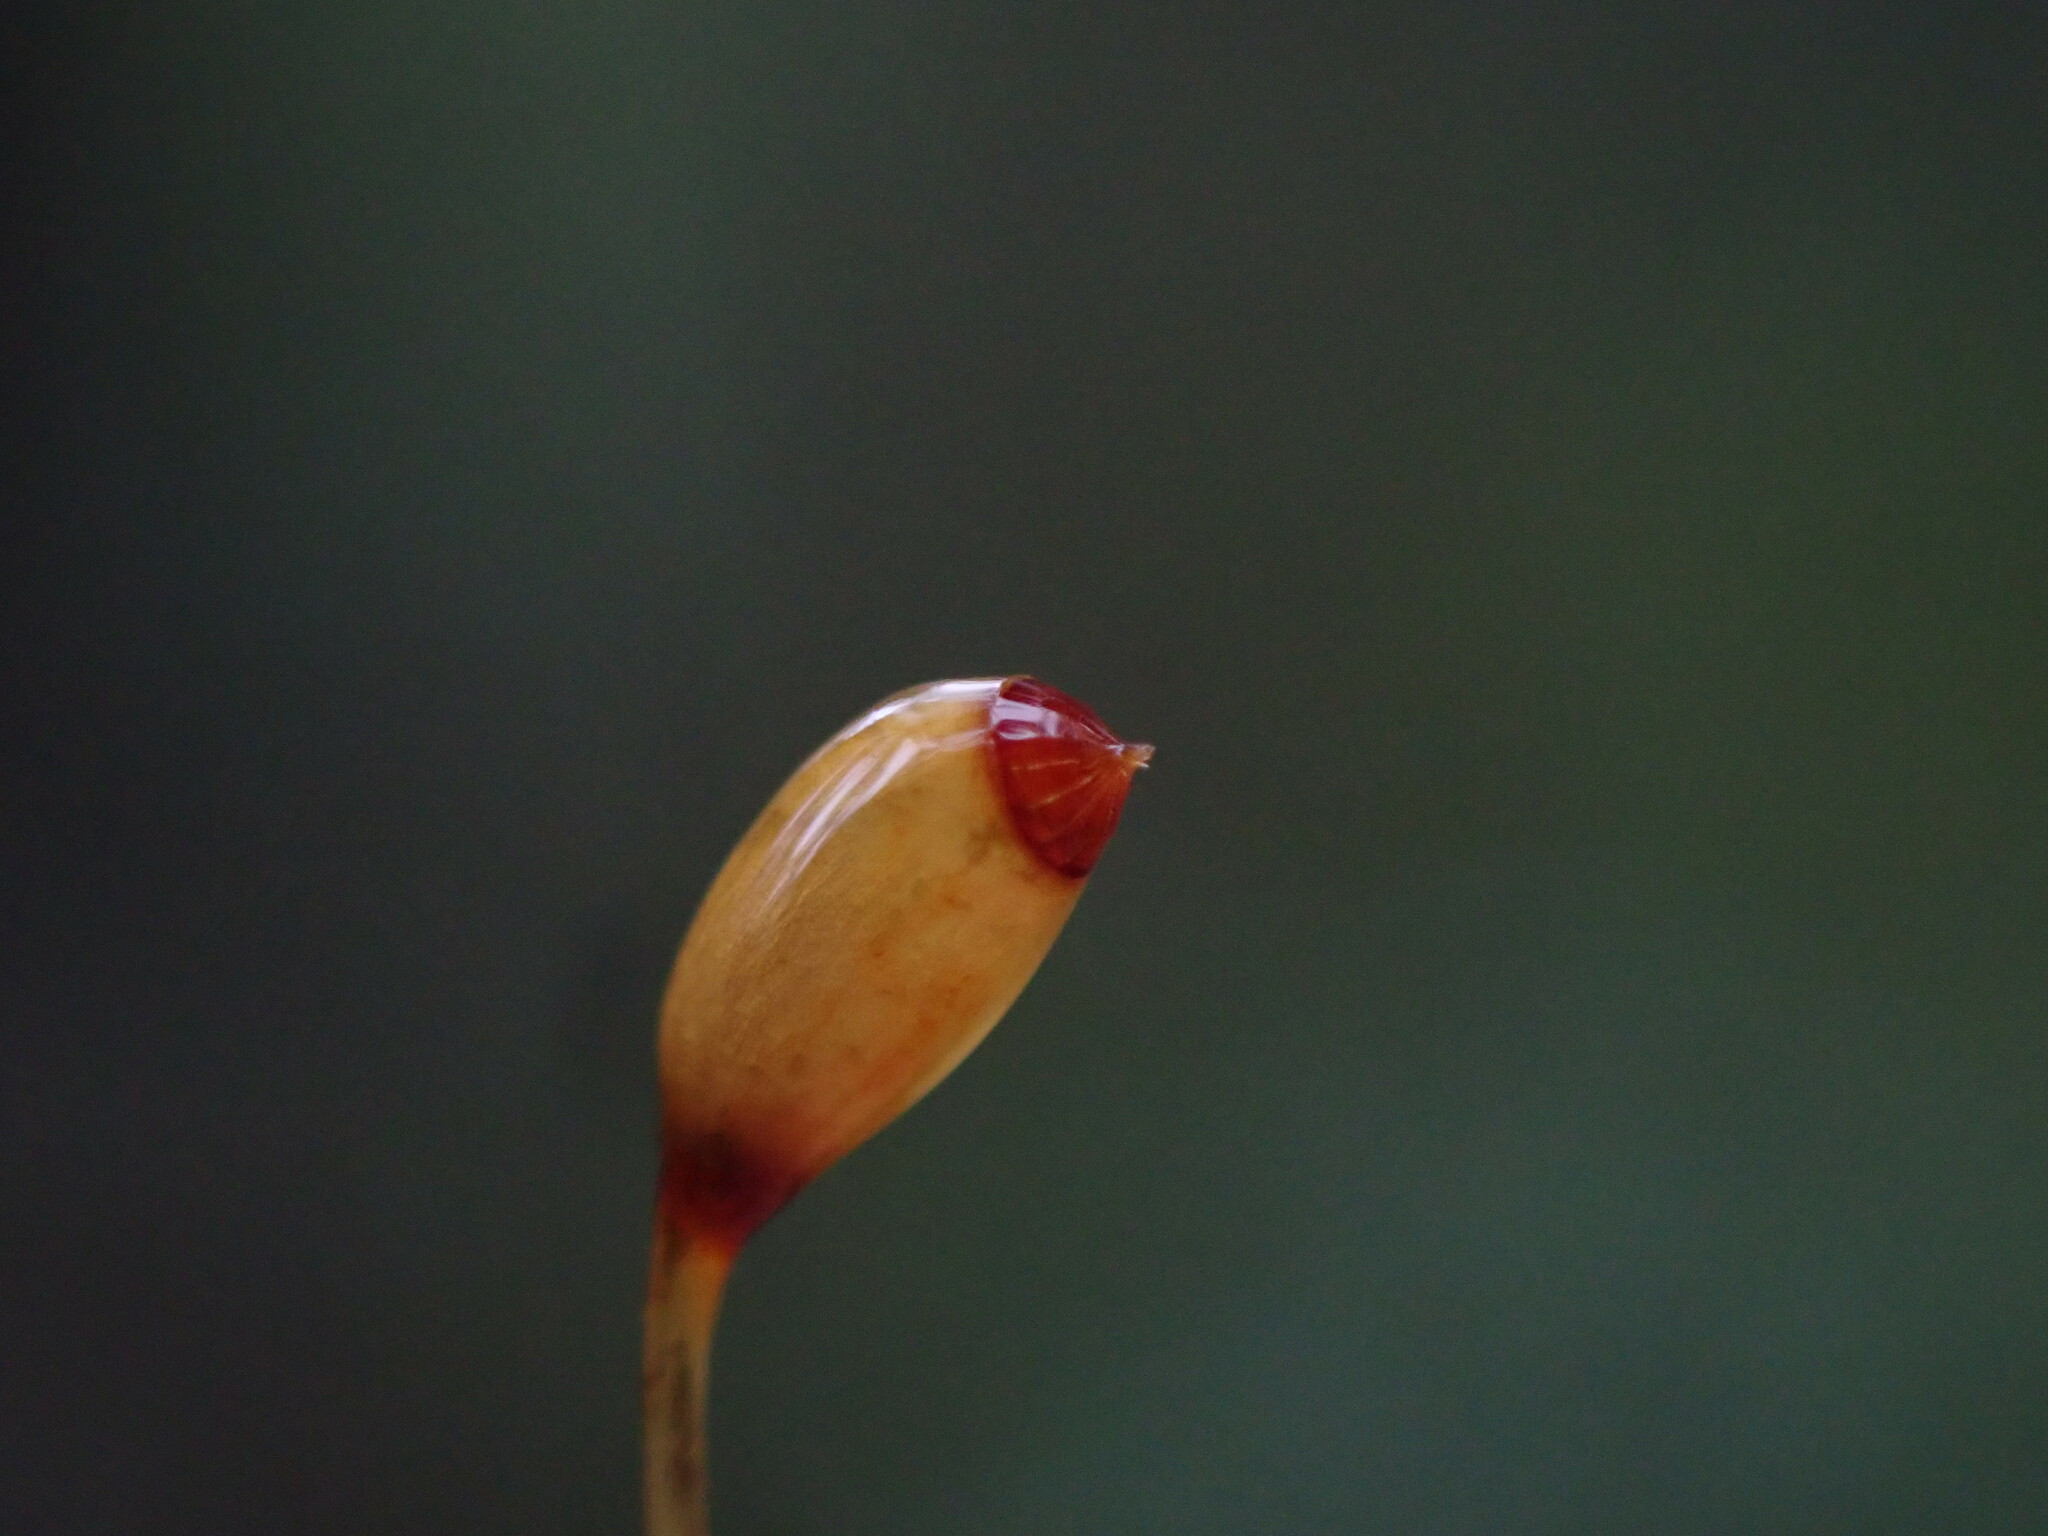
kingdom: Plantae
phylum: Bryophyta
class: Bryopsida
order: Dicranales
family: Dicranaceae
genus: Dicranum
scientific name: Dicranum fuscescens
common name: Curly heron's-bill moss
